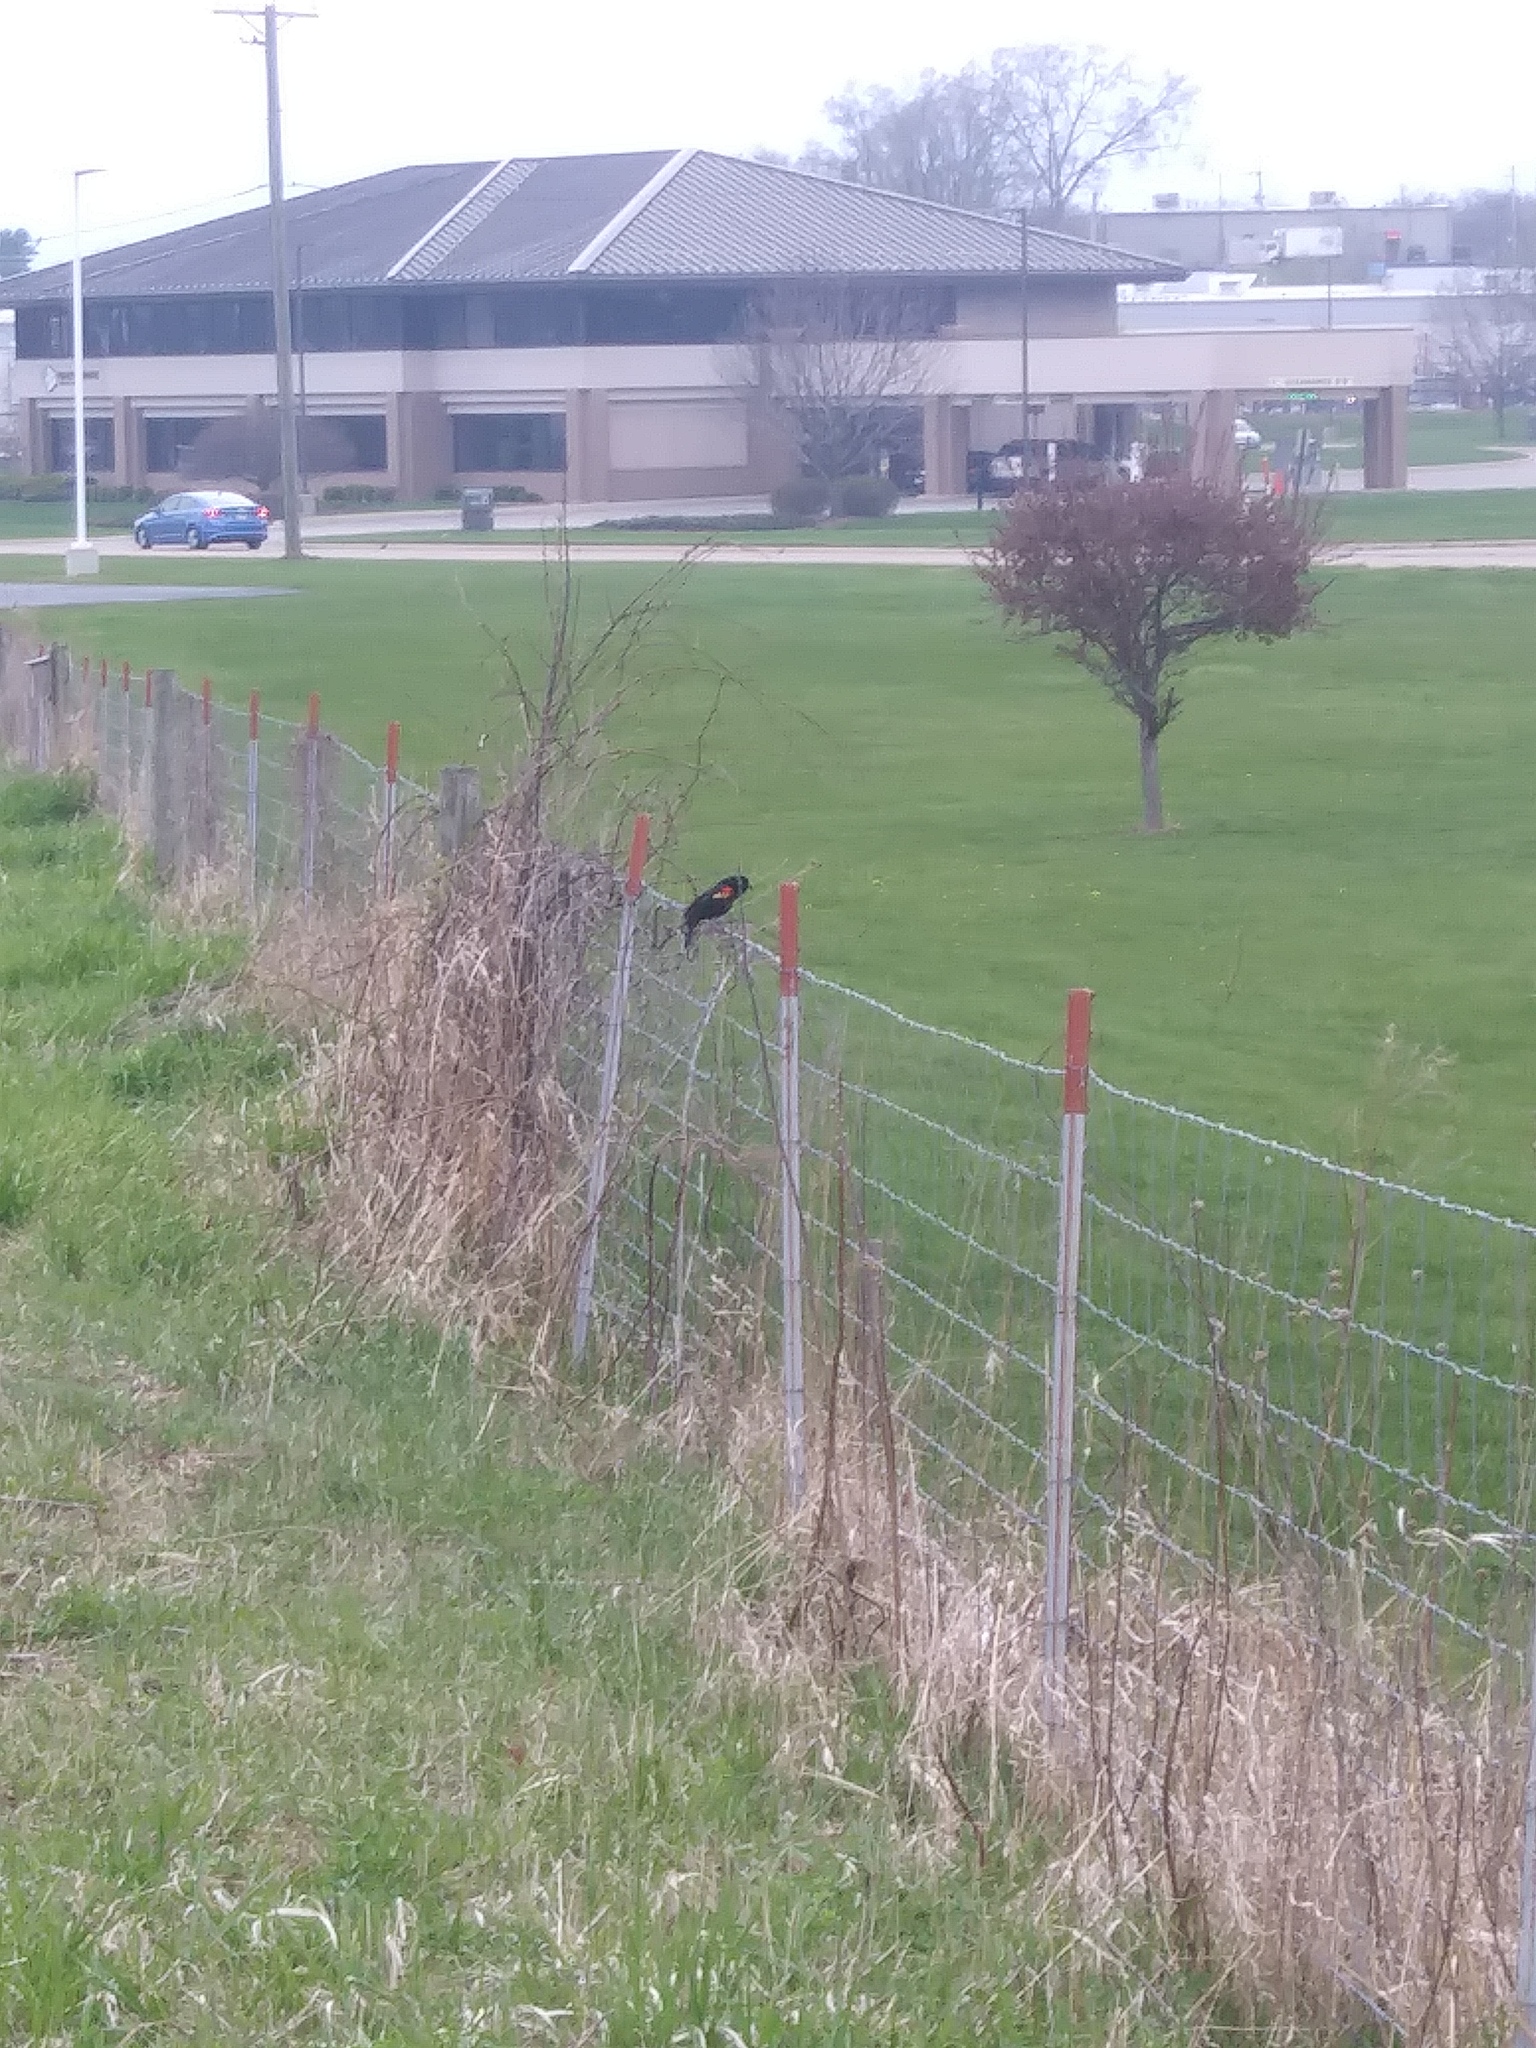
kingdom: Animalia
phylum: Chordata
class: Aves
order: Passeriformes
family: Icteridae
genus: Agelaius
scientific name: Agelaius phoeniceus
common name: Red-winged blackbird
